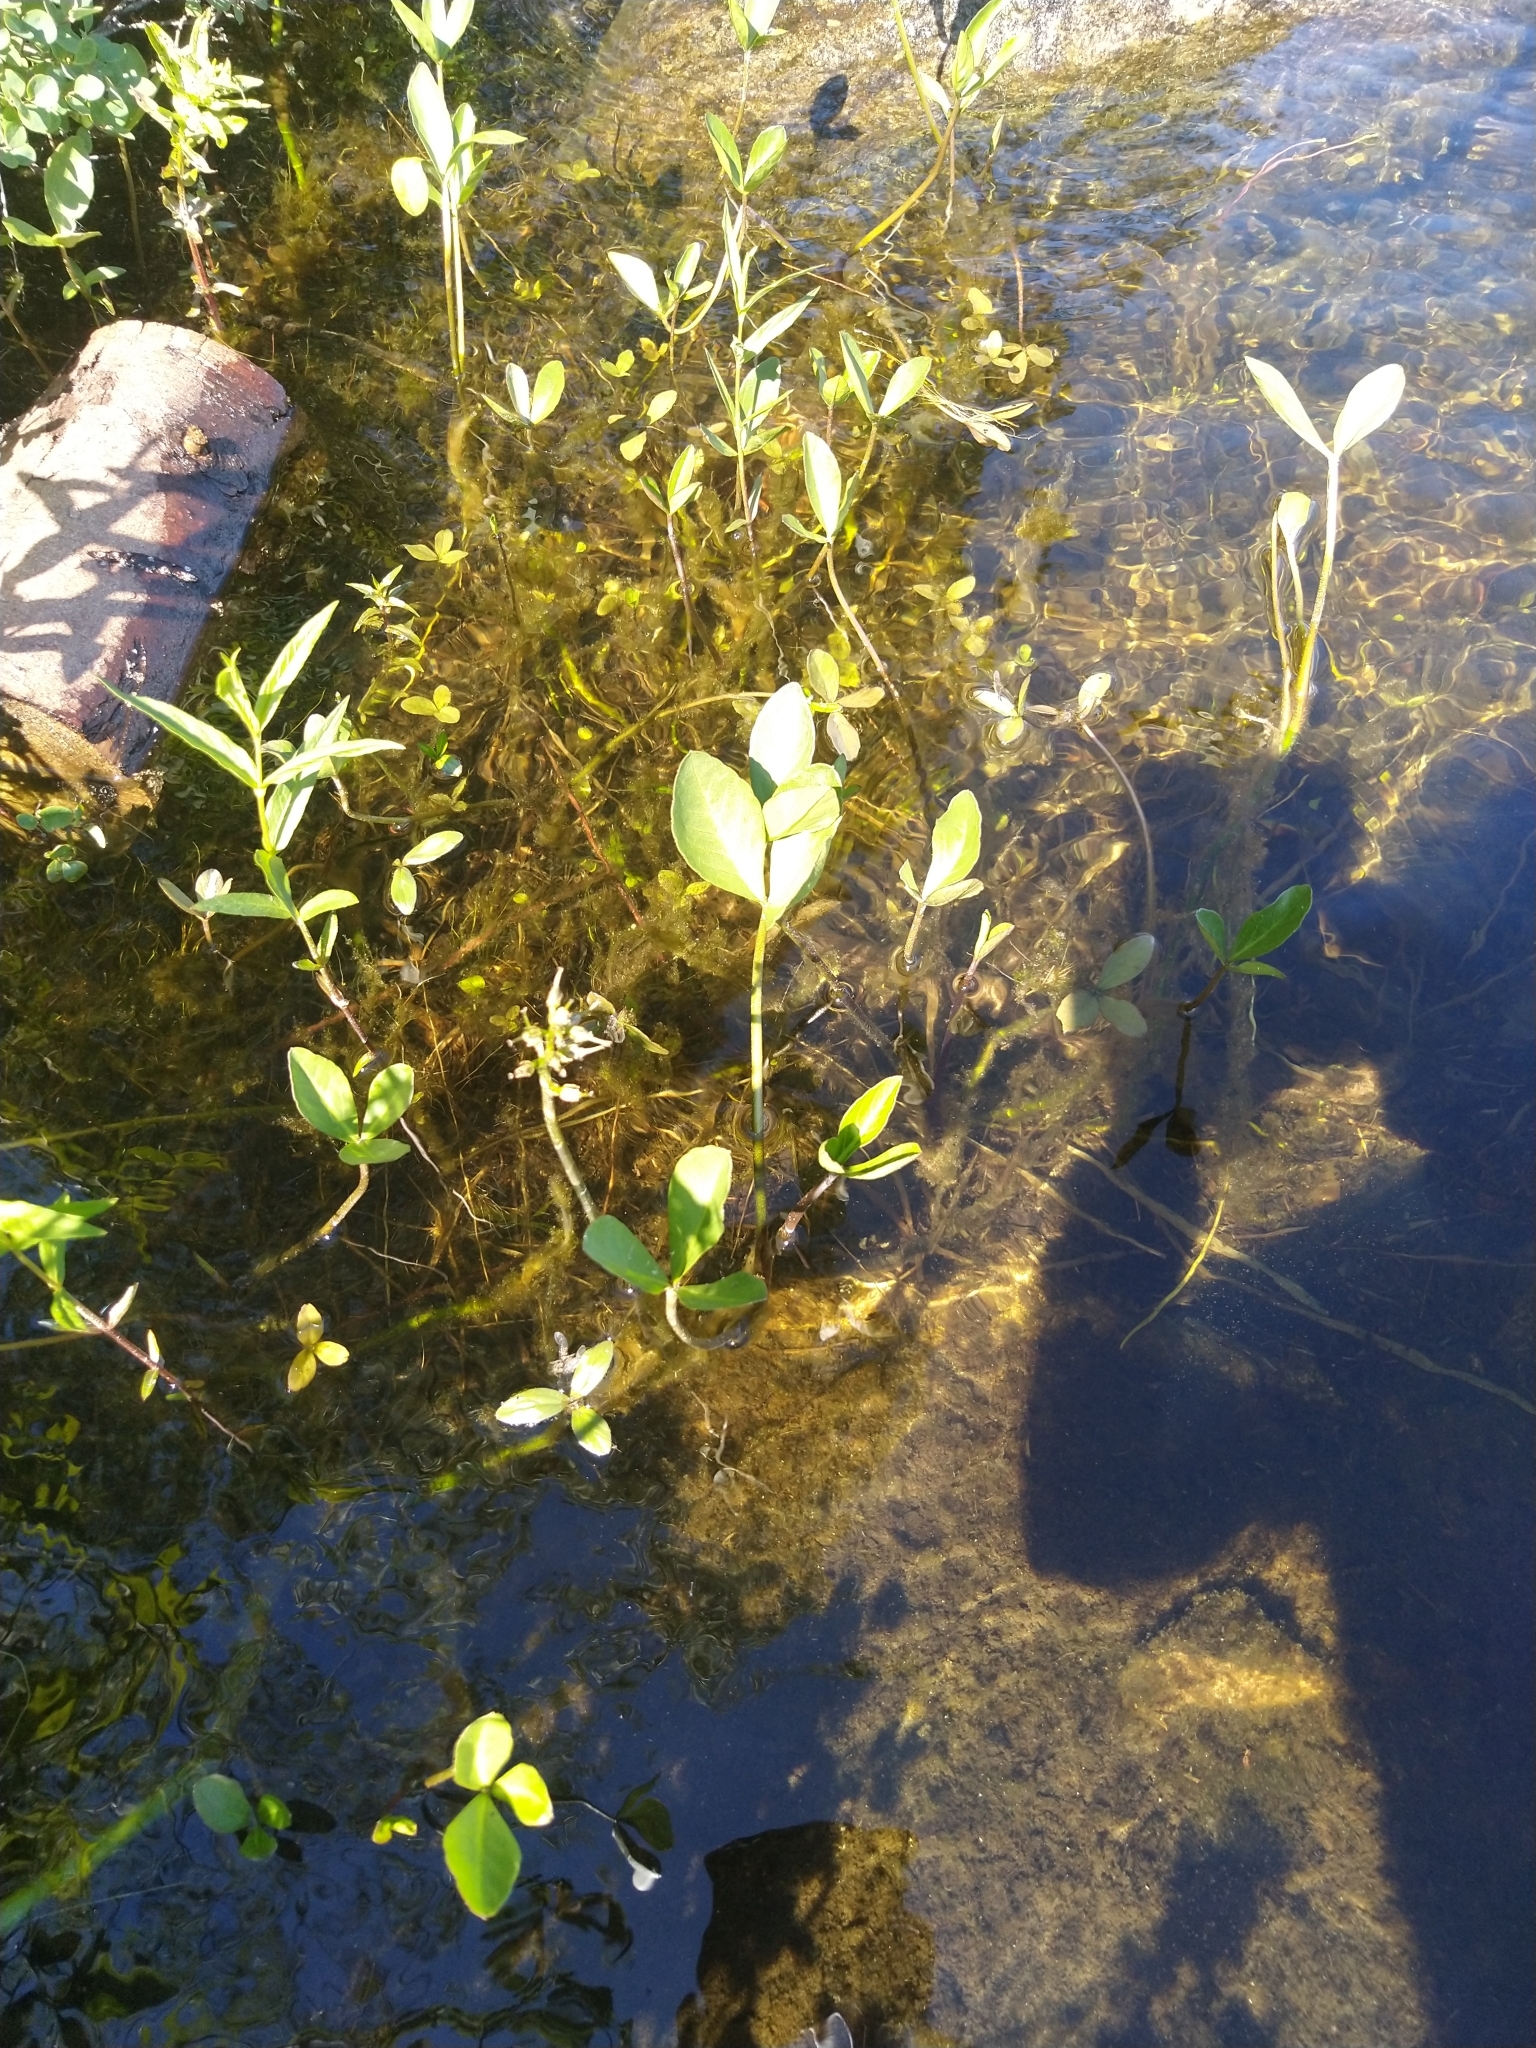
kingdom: Plantae
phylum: Tracheophyta
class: Magnoliopsida
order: Asterales
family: Menyanthaceae
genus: Menyanthes
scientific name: Menyanthes trifoliata
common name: Bogbean
